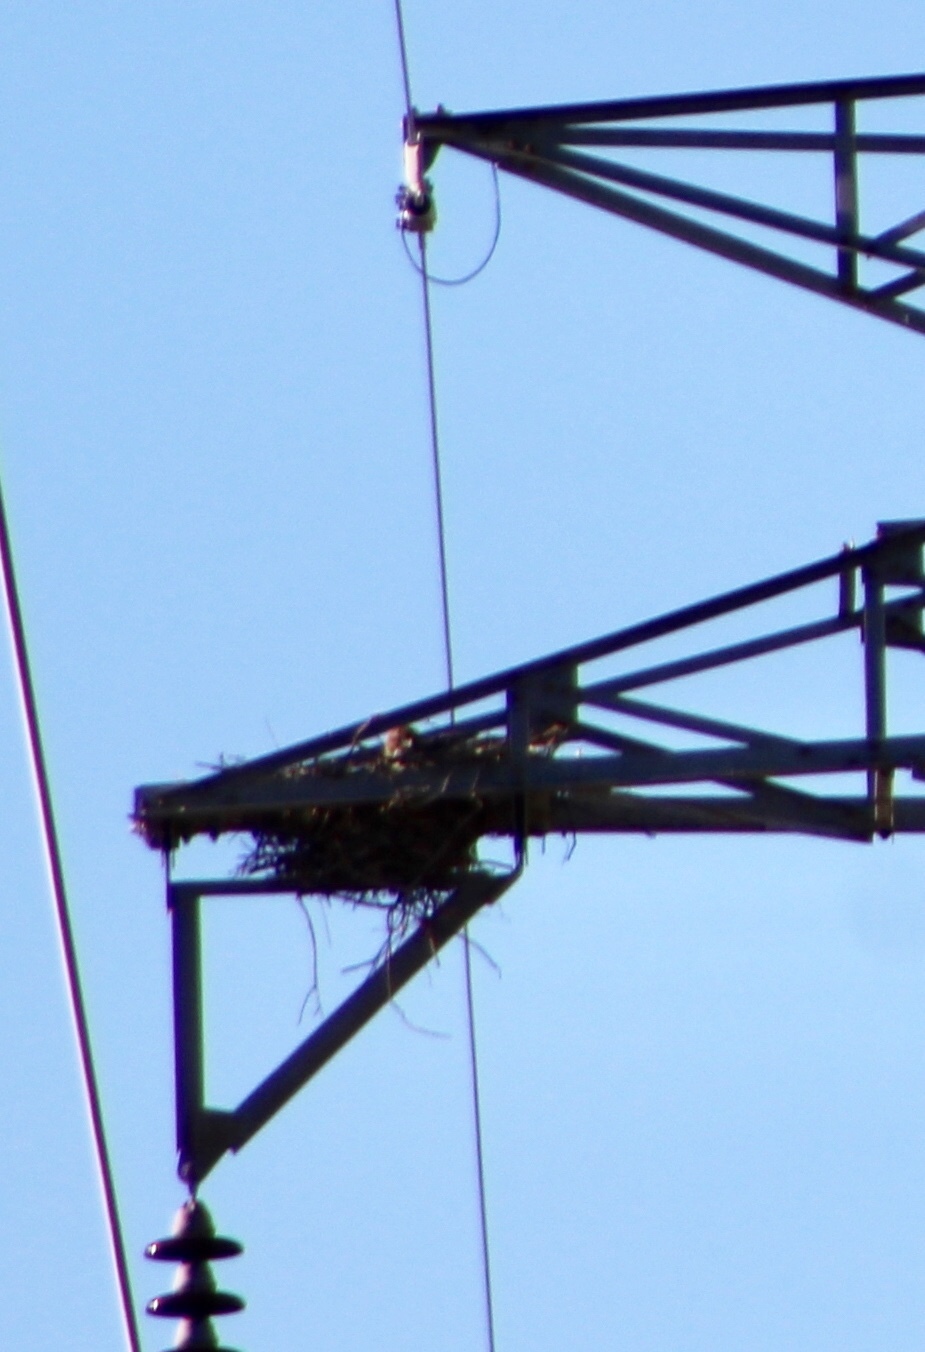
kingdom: Animalia
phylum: Chordata
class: Aves
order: Accipitriformes
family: Accipitridae
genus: Buteo
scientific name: Buteo jamaicensis
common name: Red-tailed hawk
